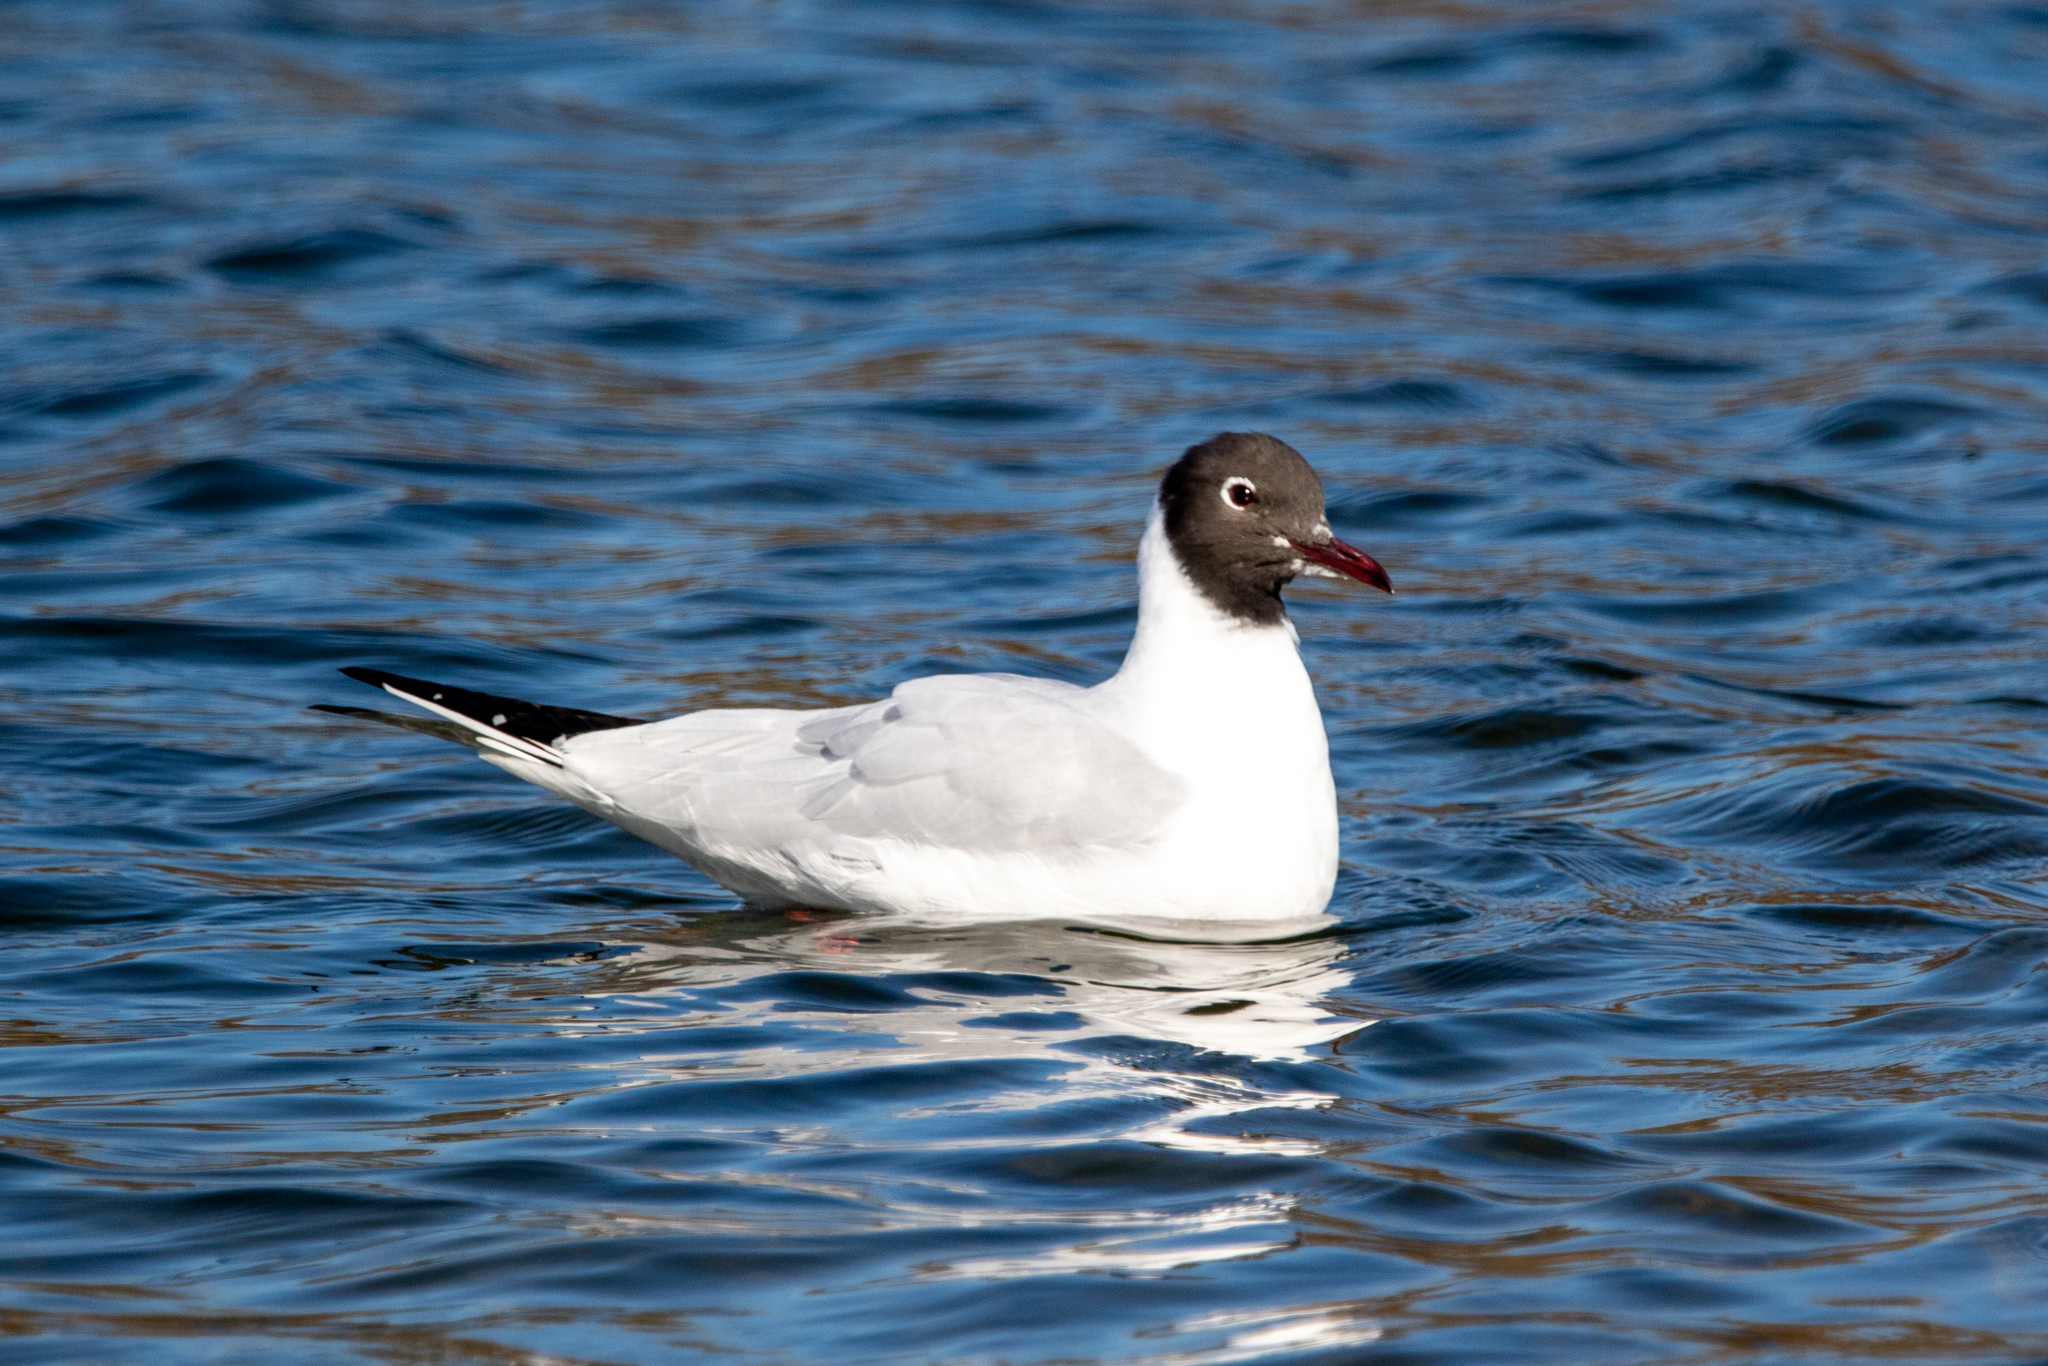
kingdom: Animalia
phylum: Chordata
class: Aves
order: Charadriiformes
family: Laridae
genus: Chroicocephalus
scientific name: Chroicocephalus ridibundus
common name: Black-headed gull
